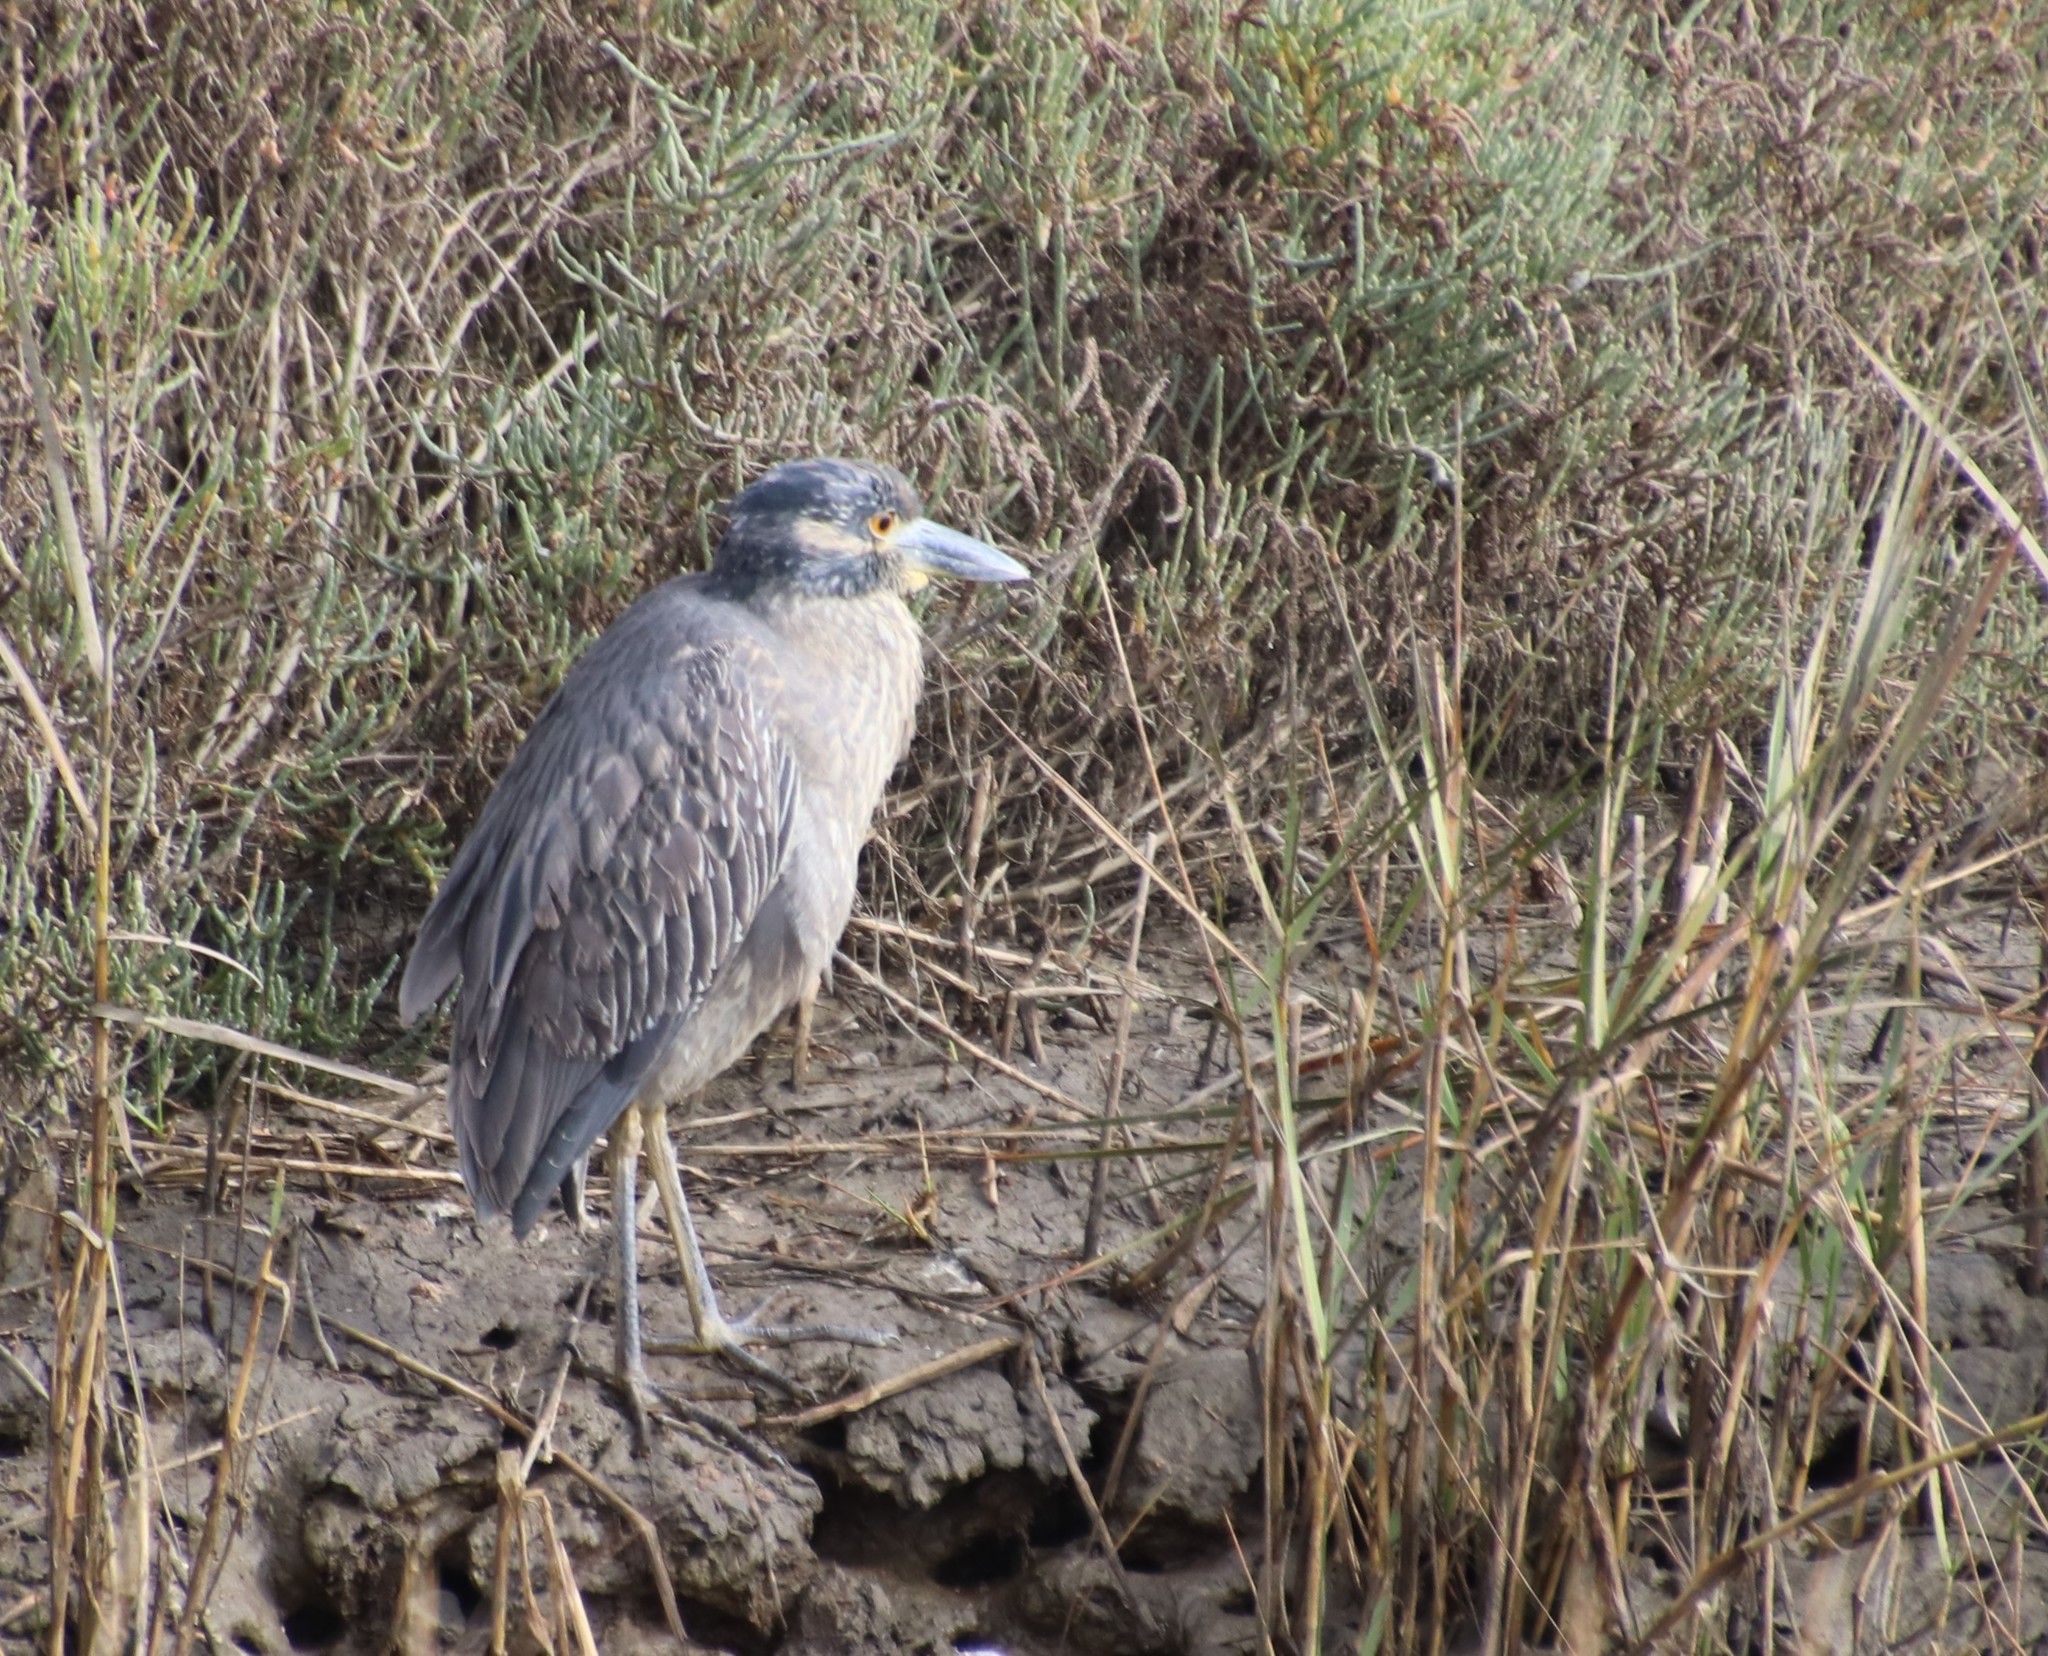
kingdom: Animalia
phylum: Chordata
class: Aves
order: Pelecaniformes
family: Ardeidae
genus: Nyctanassa
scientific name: Nyctanassa violacea
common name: Yellow-crowned night heron
